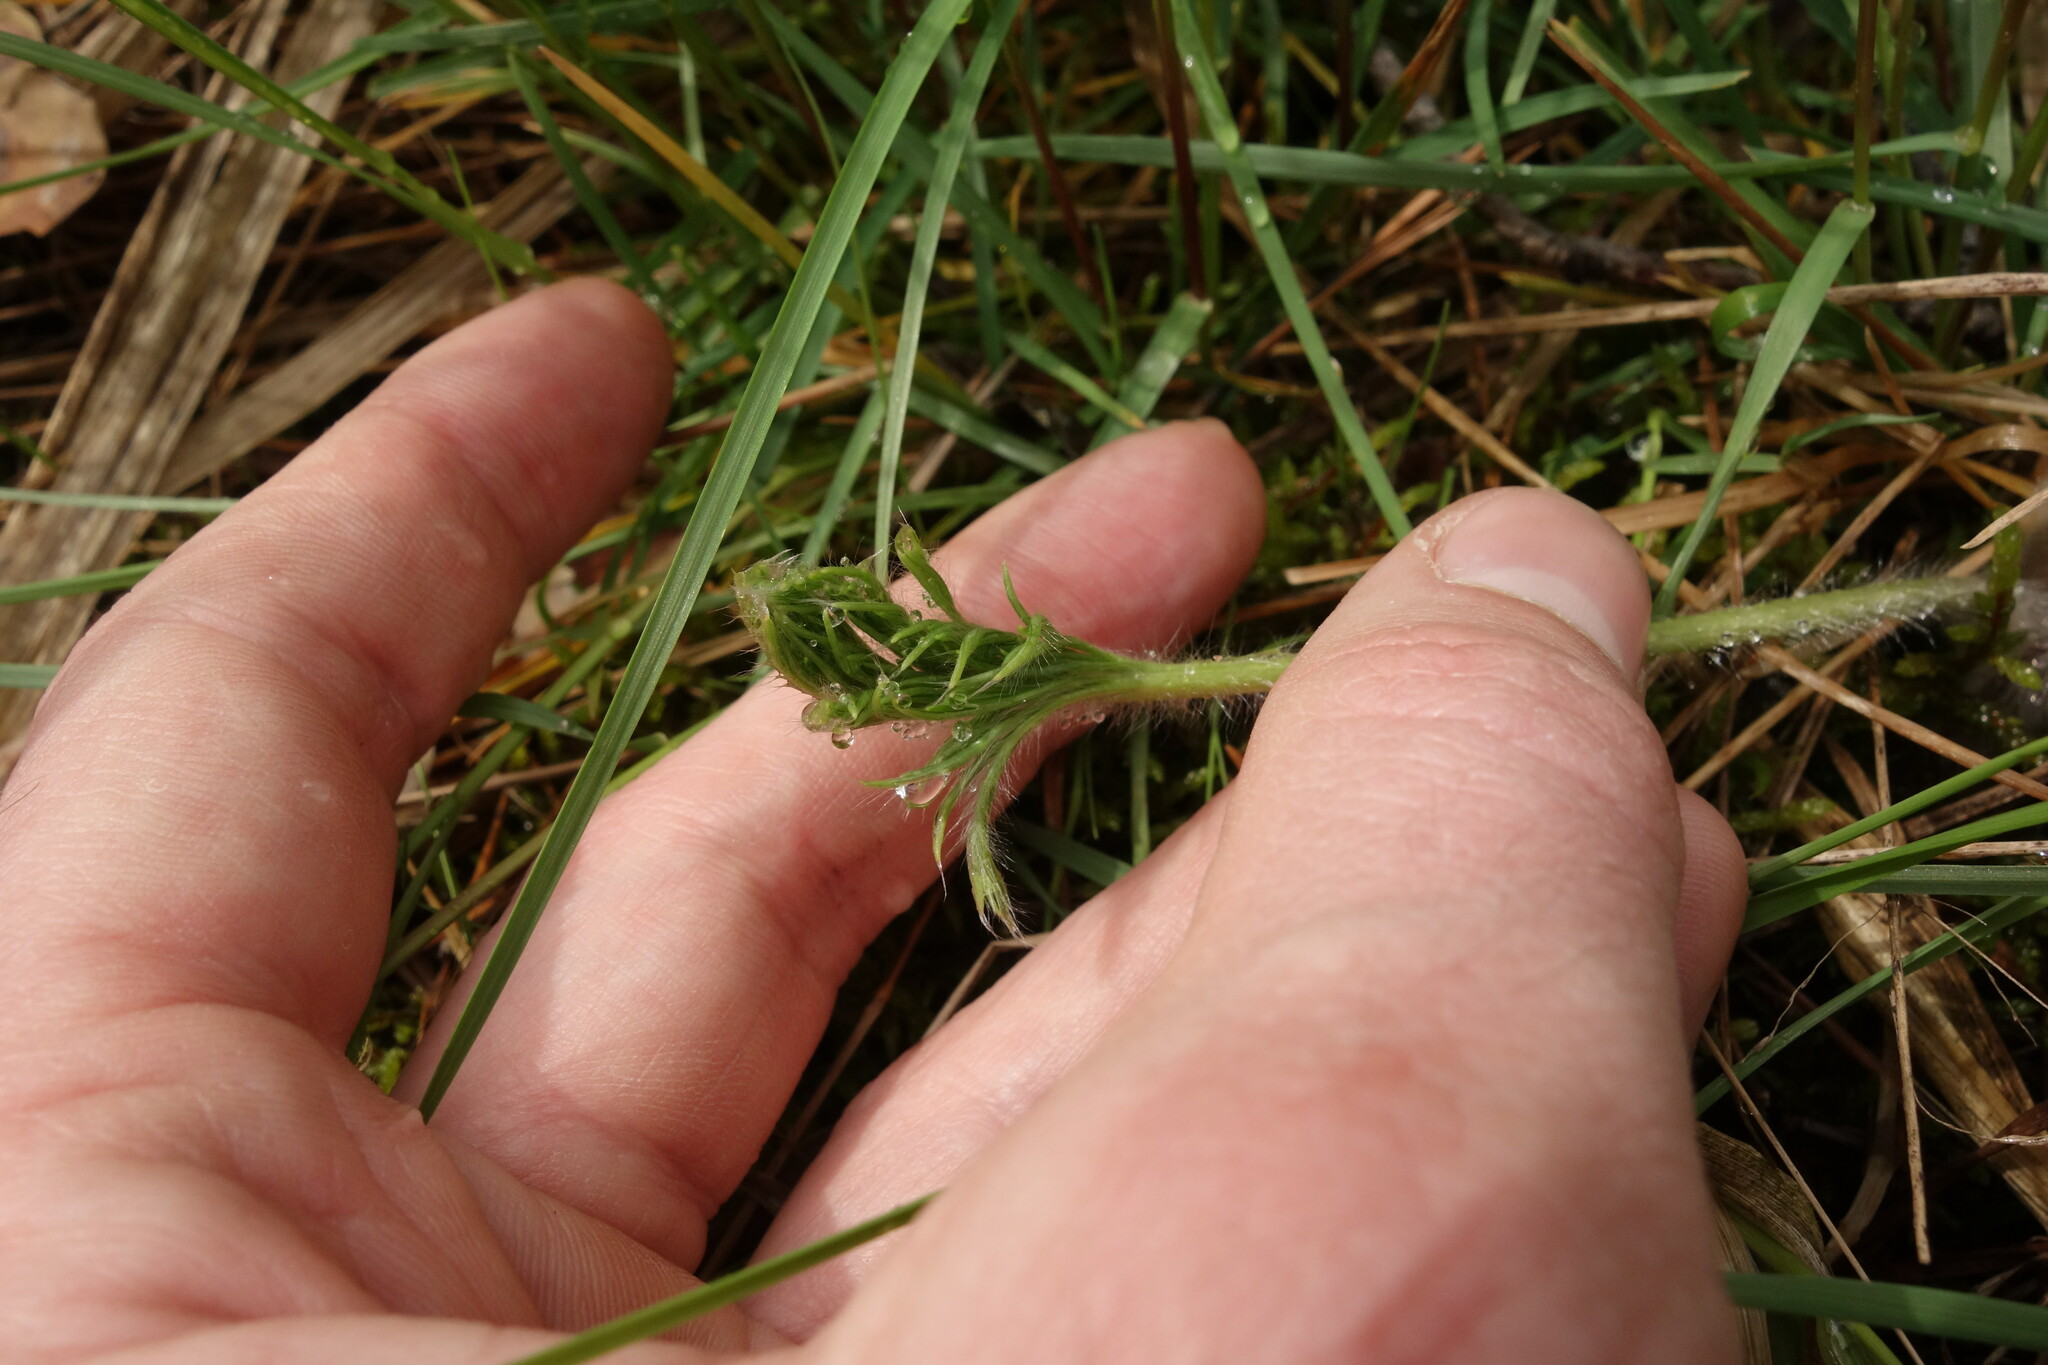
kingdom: Plantae
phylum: Tracheophyta
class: Magnoliopsida
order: Ranunculales
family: Ranunculaceae
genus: Pulsatilla
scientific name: Pulsatilla pratensis
